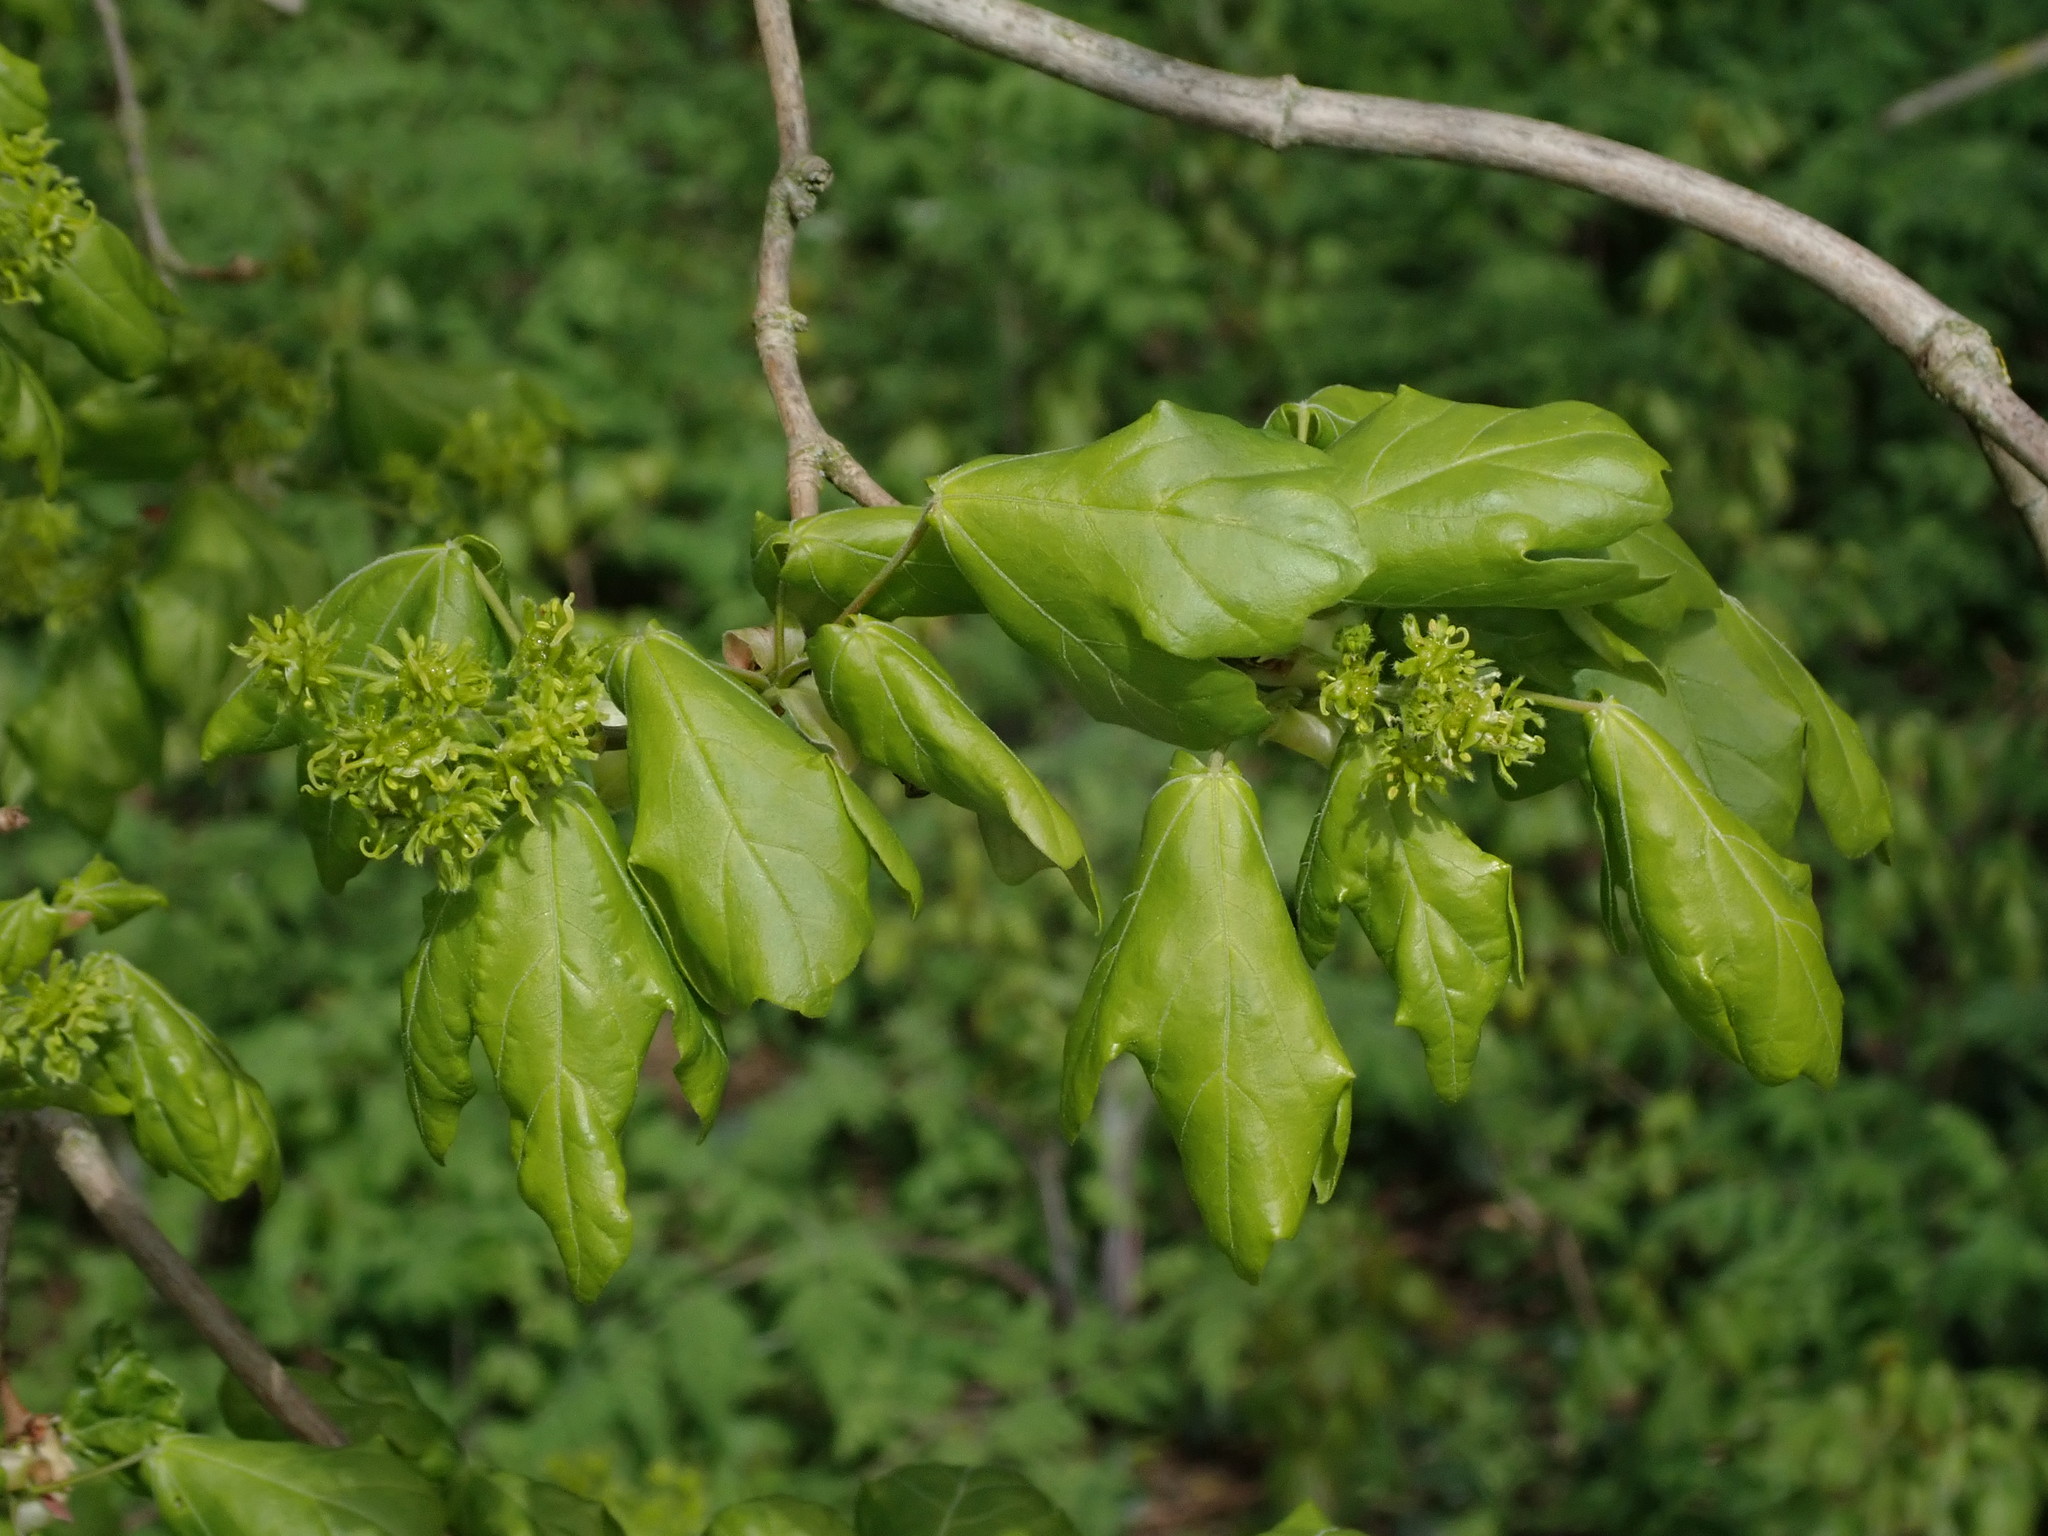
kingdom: Plantae
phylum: Tracheophyta
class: Magnoliopsida
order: Sapindales
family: Sapindaceae
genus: Acer
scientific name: Acer campestre
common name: Field maple
